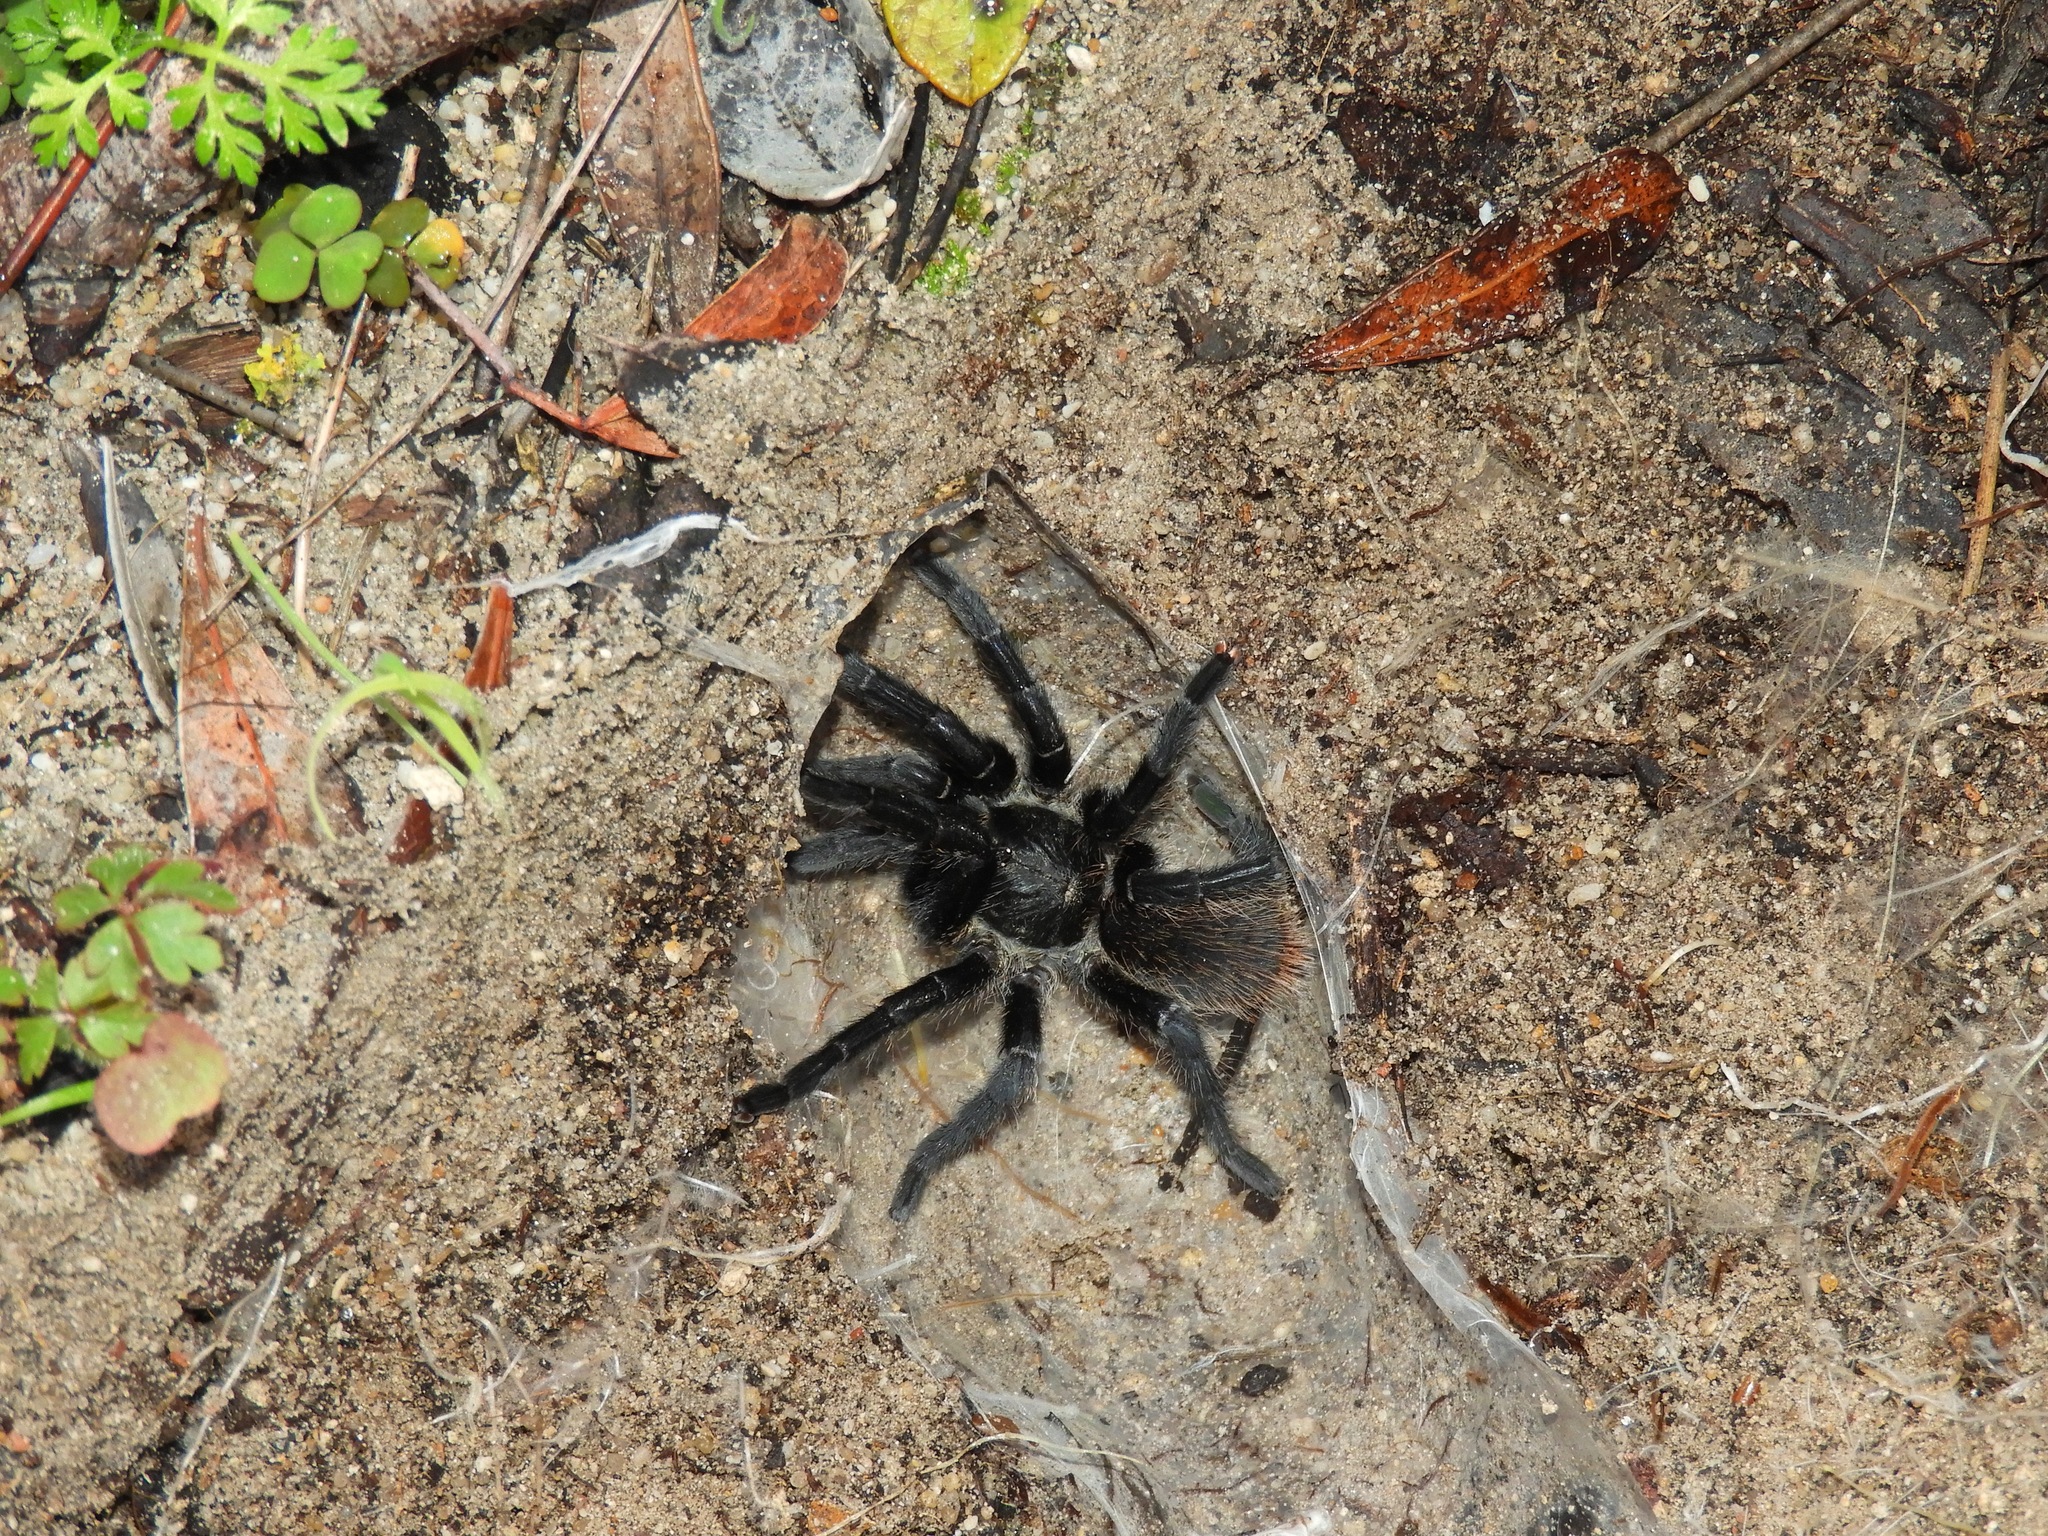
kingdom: Animalia
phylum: Arthropoda
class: Arachnida
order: Araneae
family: Theraphosidae
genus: Harpactira
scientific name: Harpactira atra
